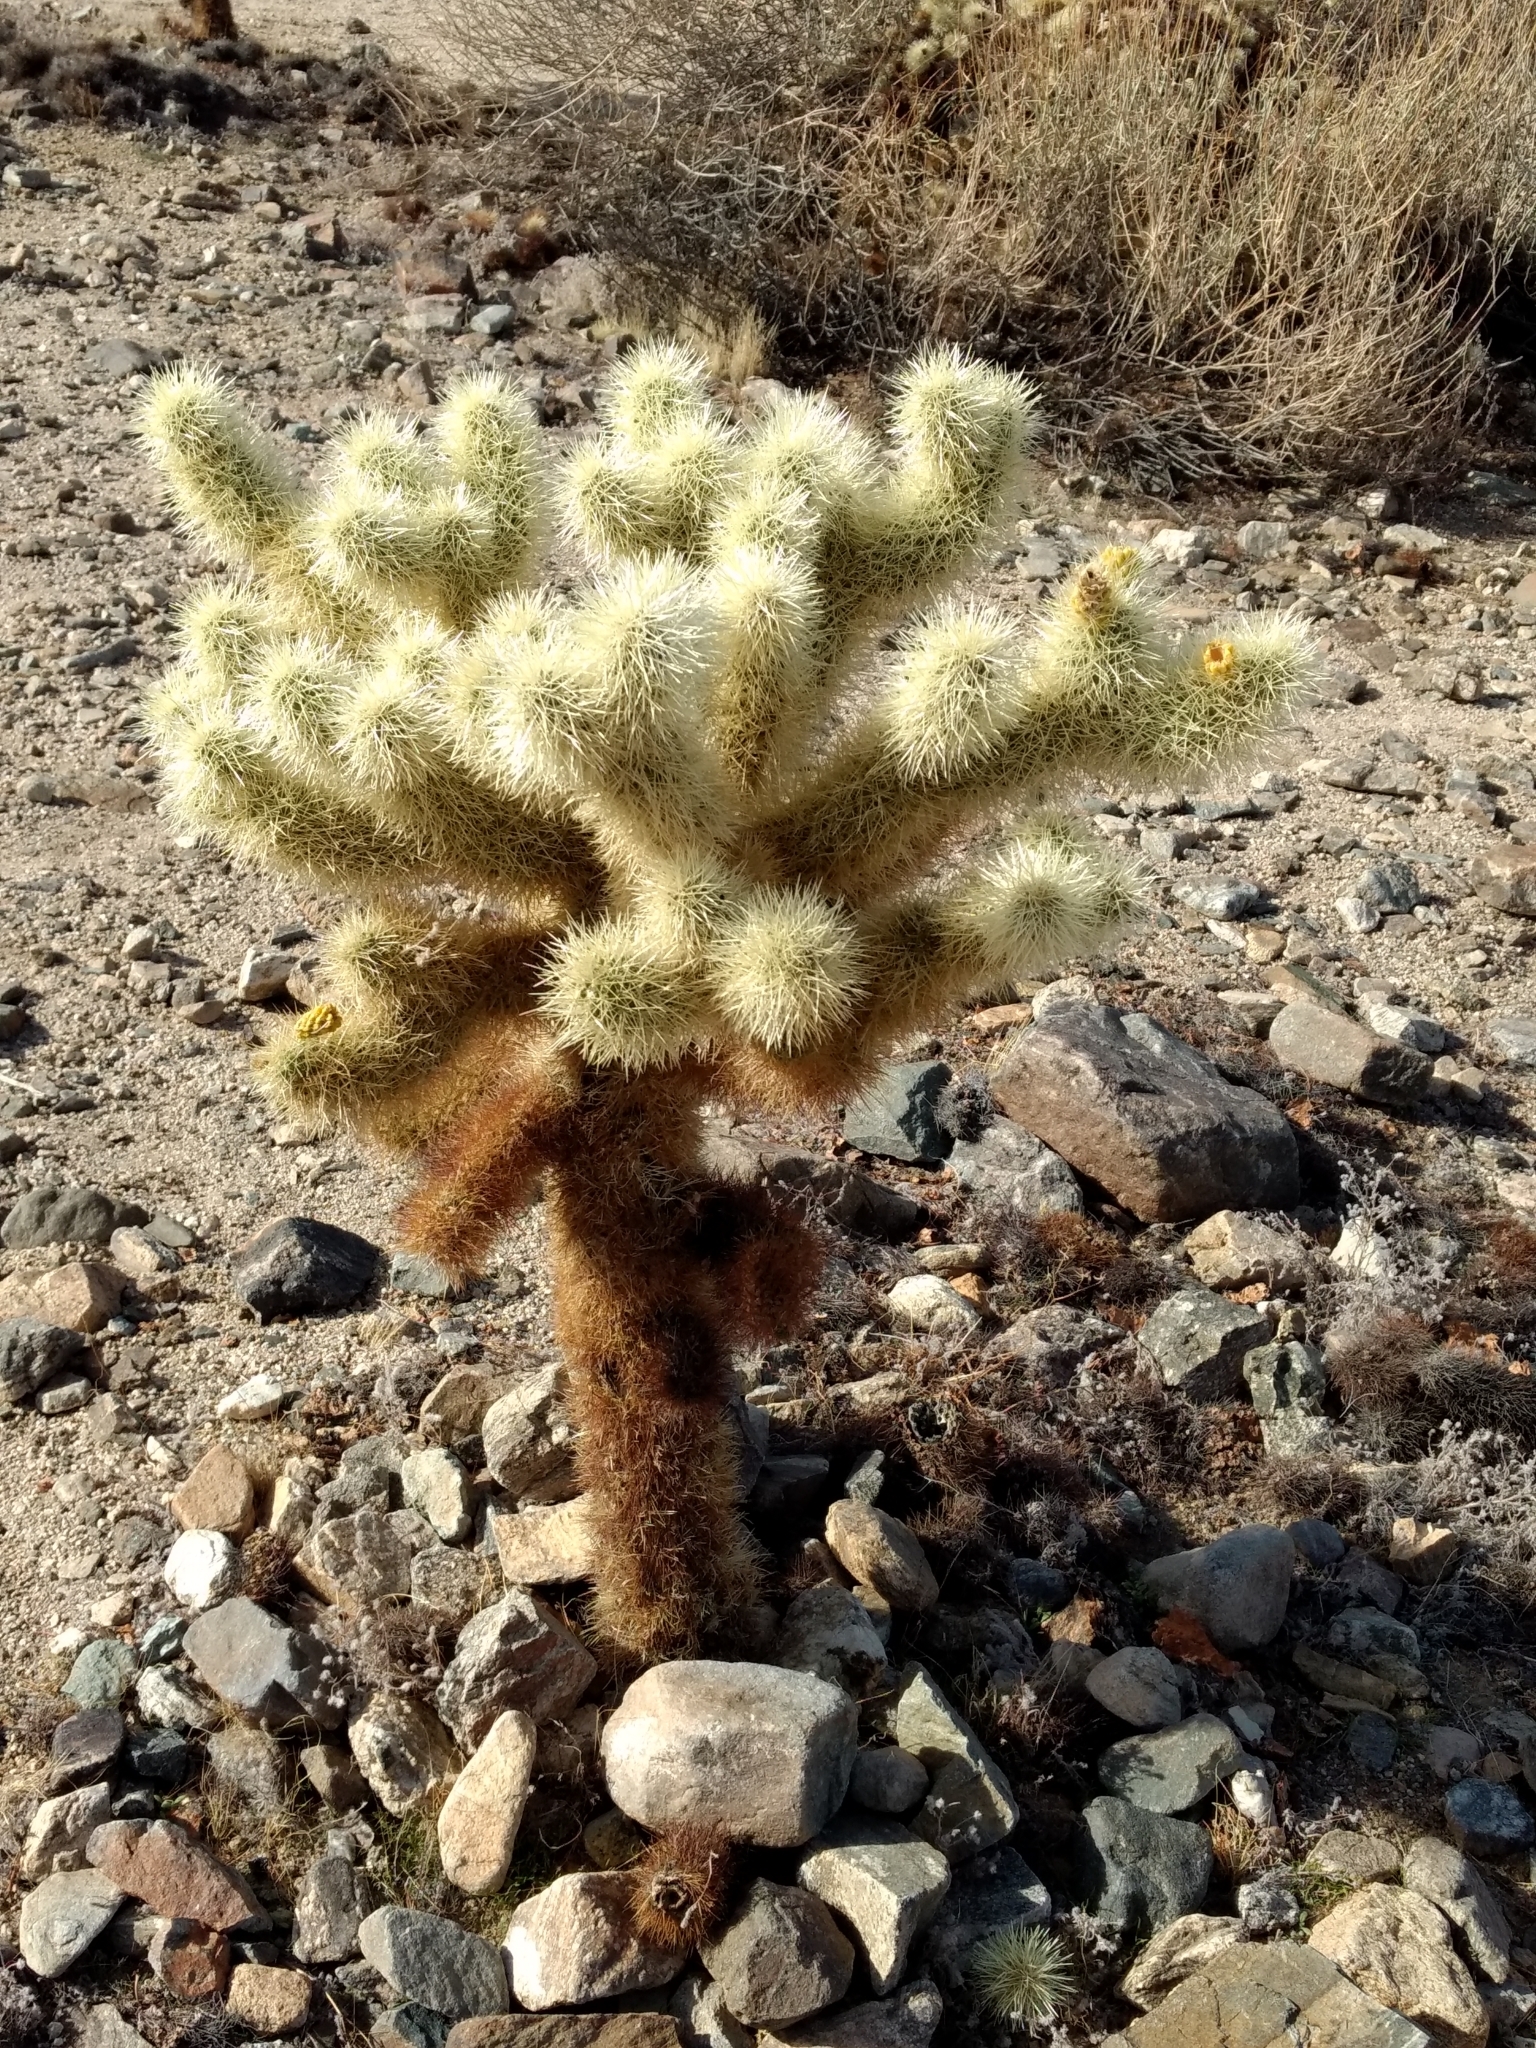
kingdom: Plantae
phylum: Tracheophyta
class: Magnoliopsida
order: Caryophyllales
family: Cactaceae
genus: Cylindropuntia
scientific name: Cylindropuntia fosbergii
